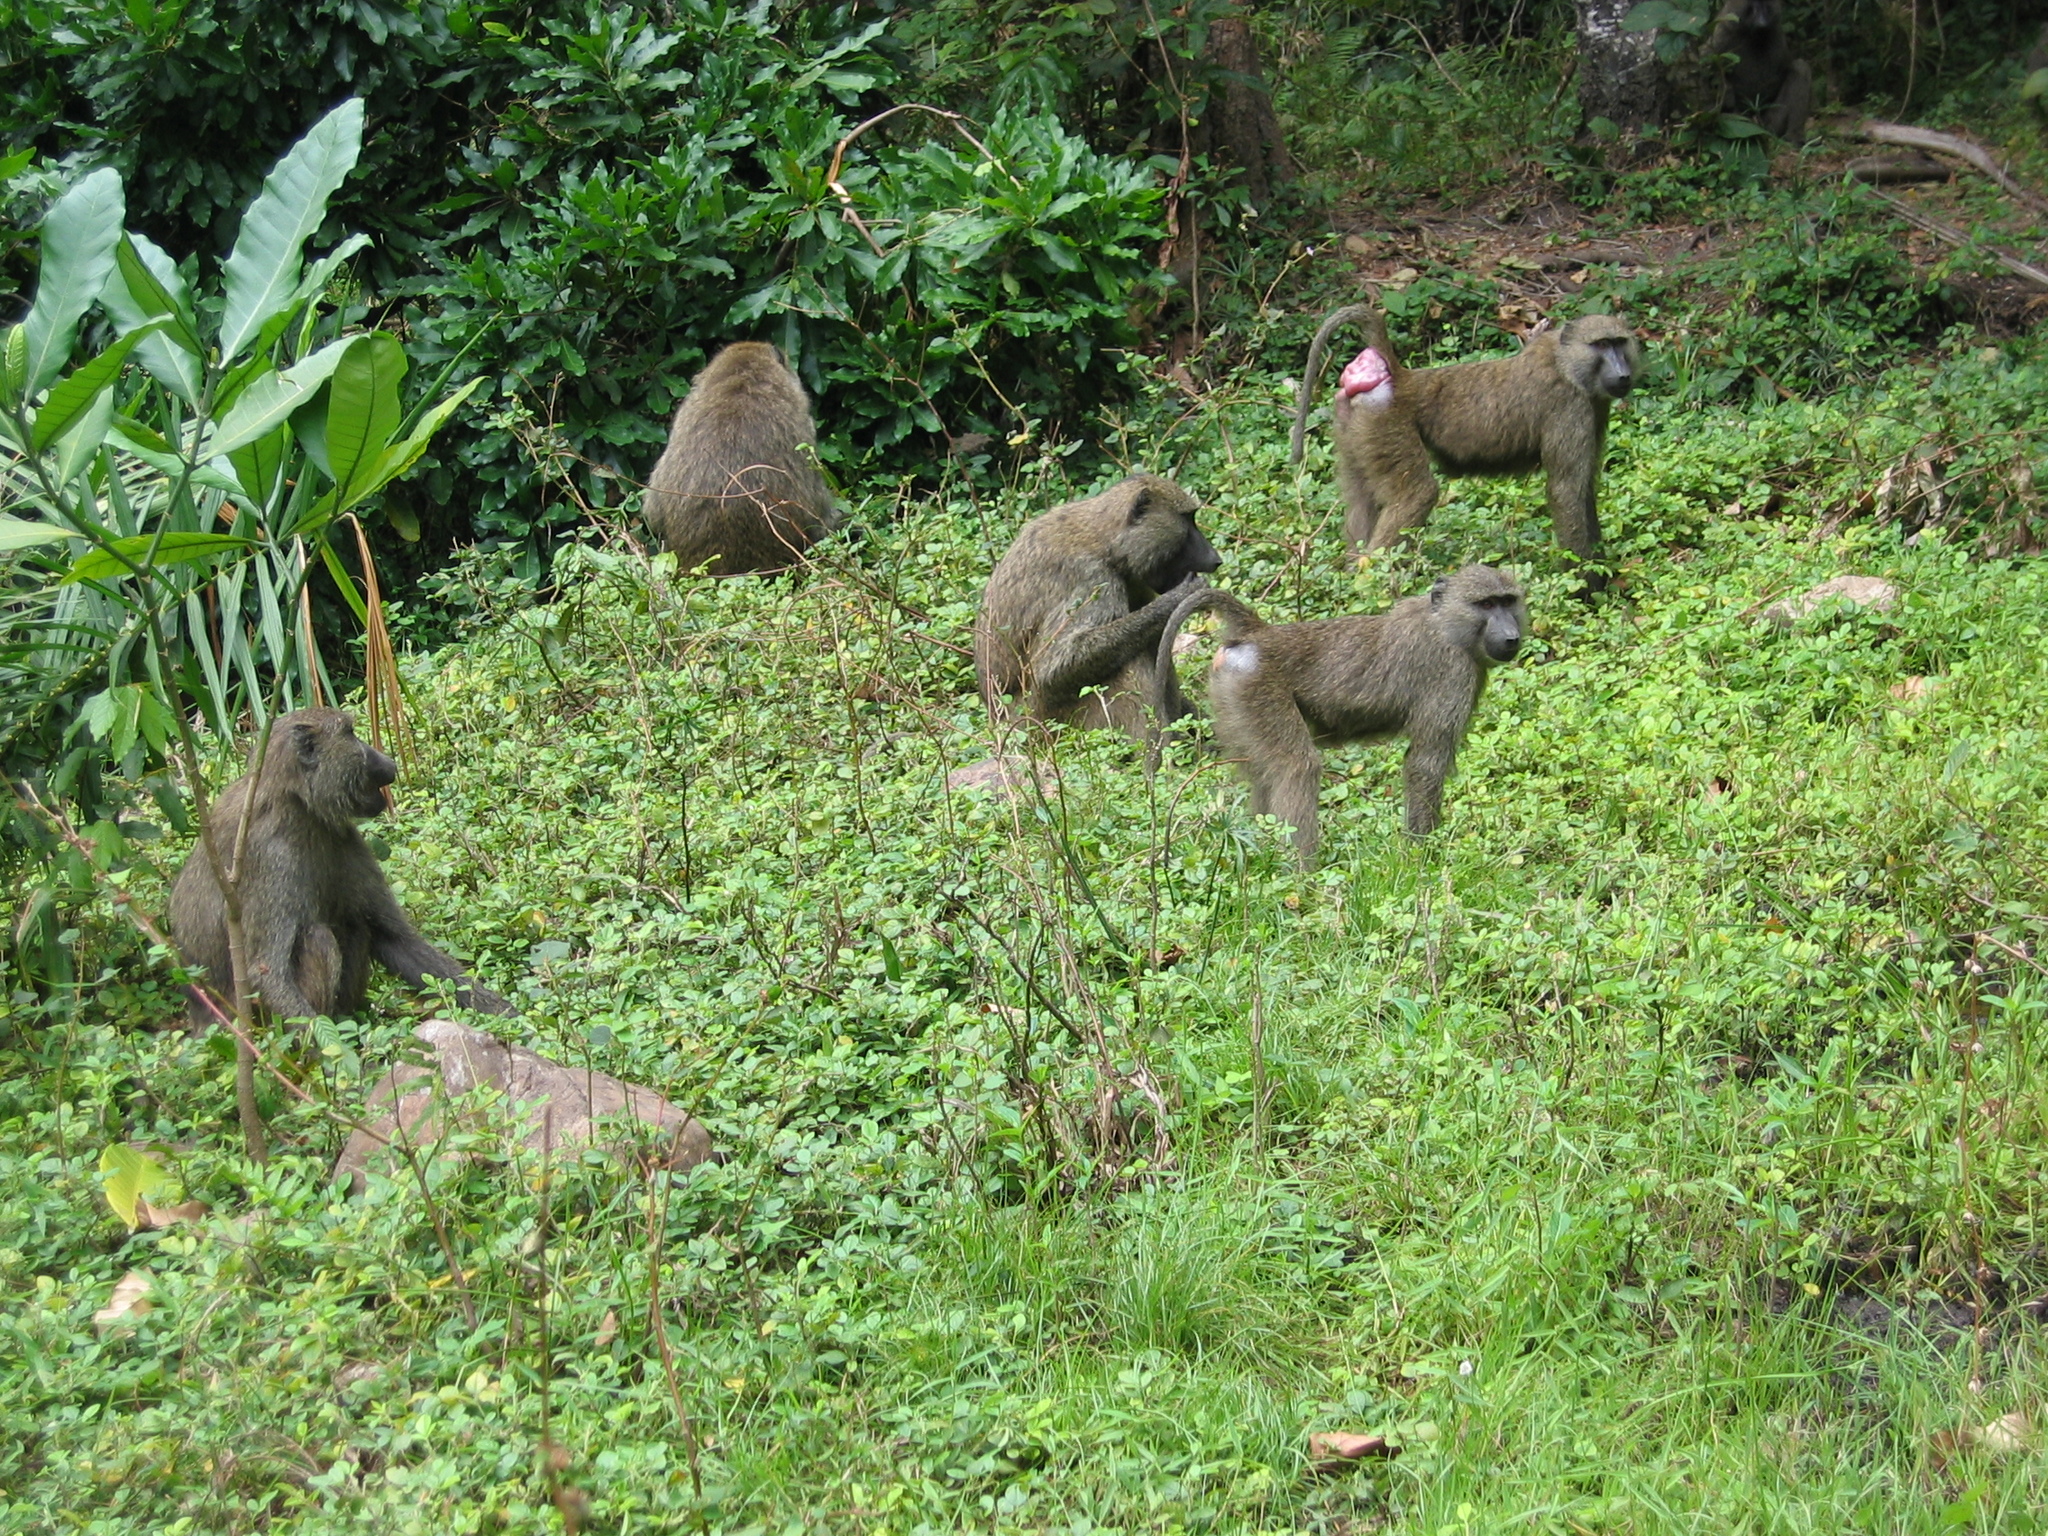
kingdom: Animalia
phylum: Chordata
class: Mammalia
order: Primates
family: Cercopithecidae
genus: Papio
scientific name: Papio anubis
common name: Olive baboon
